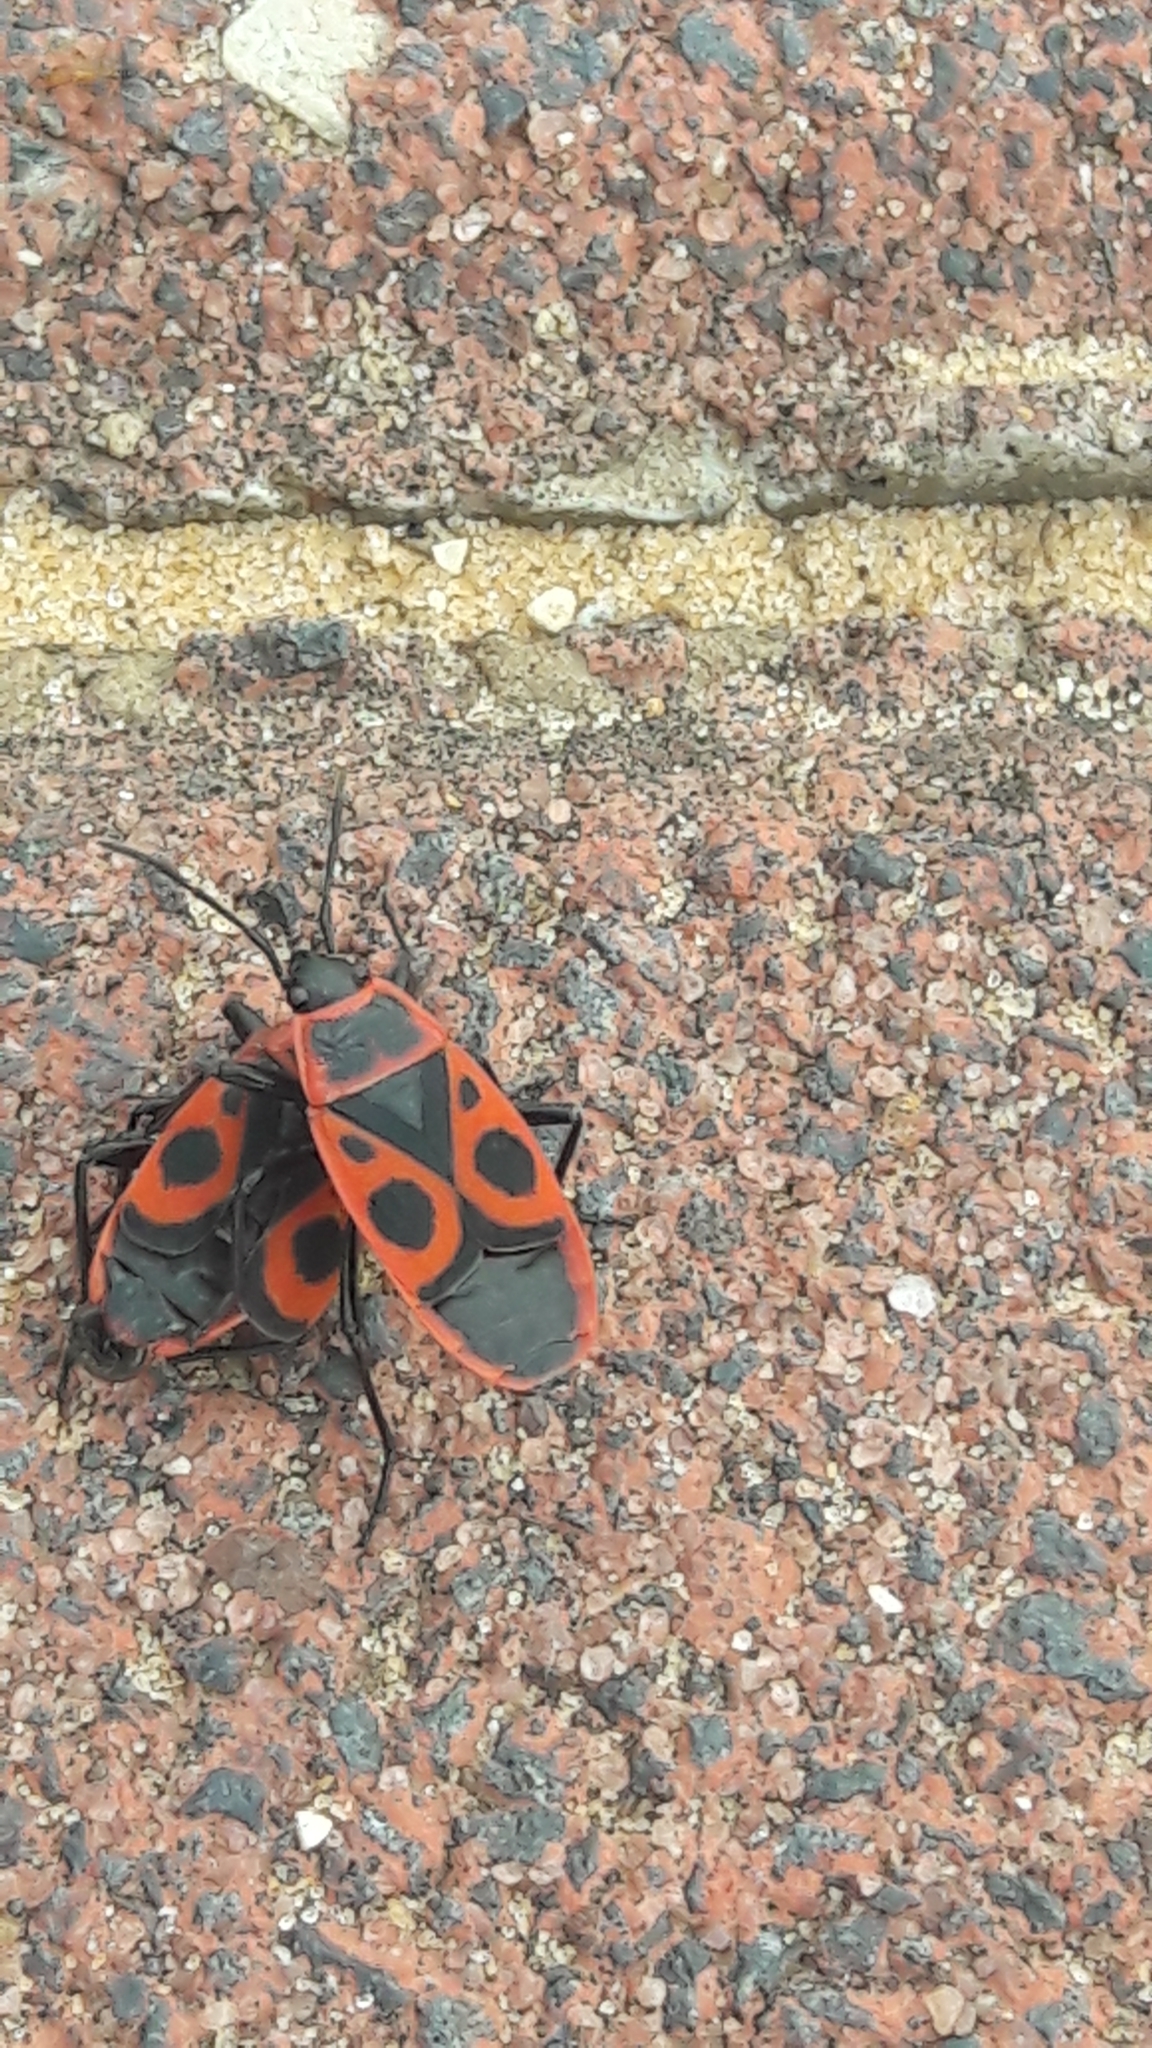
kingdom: Animalia
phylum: Arthropoda
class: Insecta
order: Hemiptera
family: Pyrrhocoridae
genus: Pyrrhocoris
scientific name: Pyrrhocoris apterus
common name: Firebug
